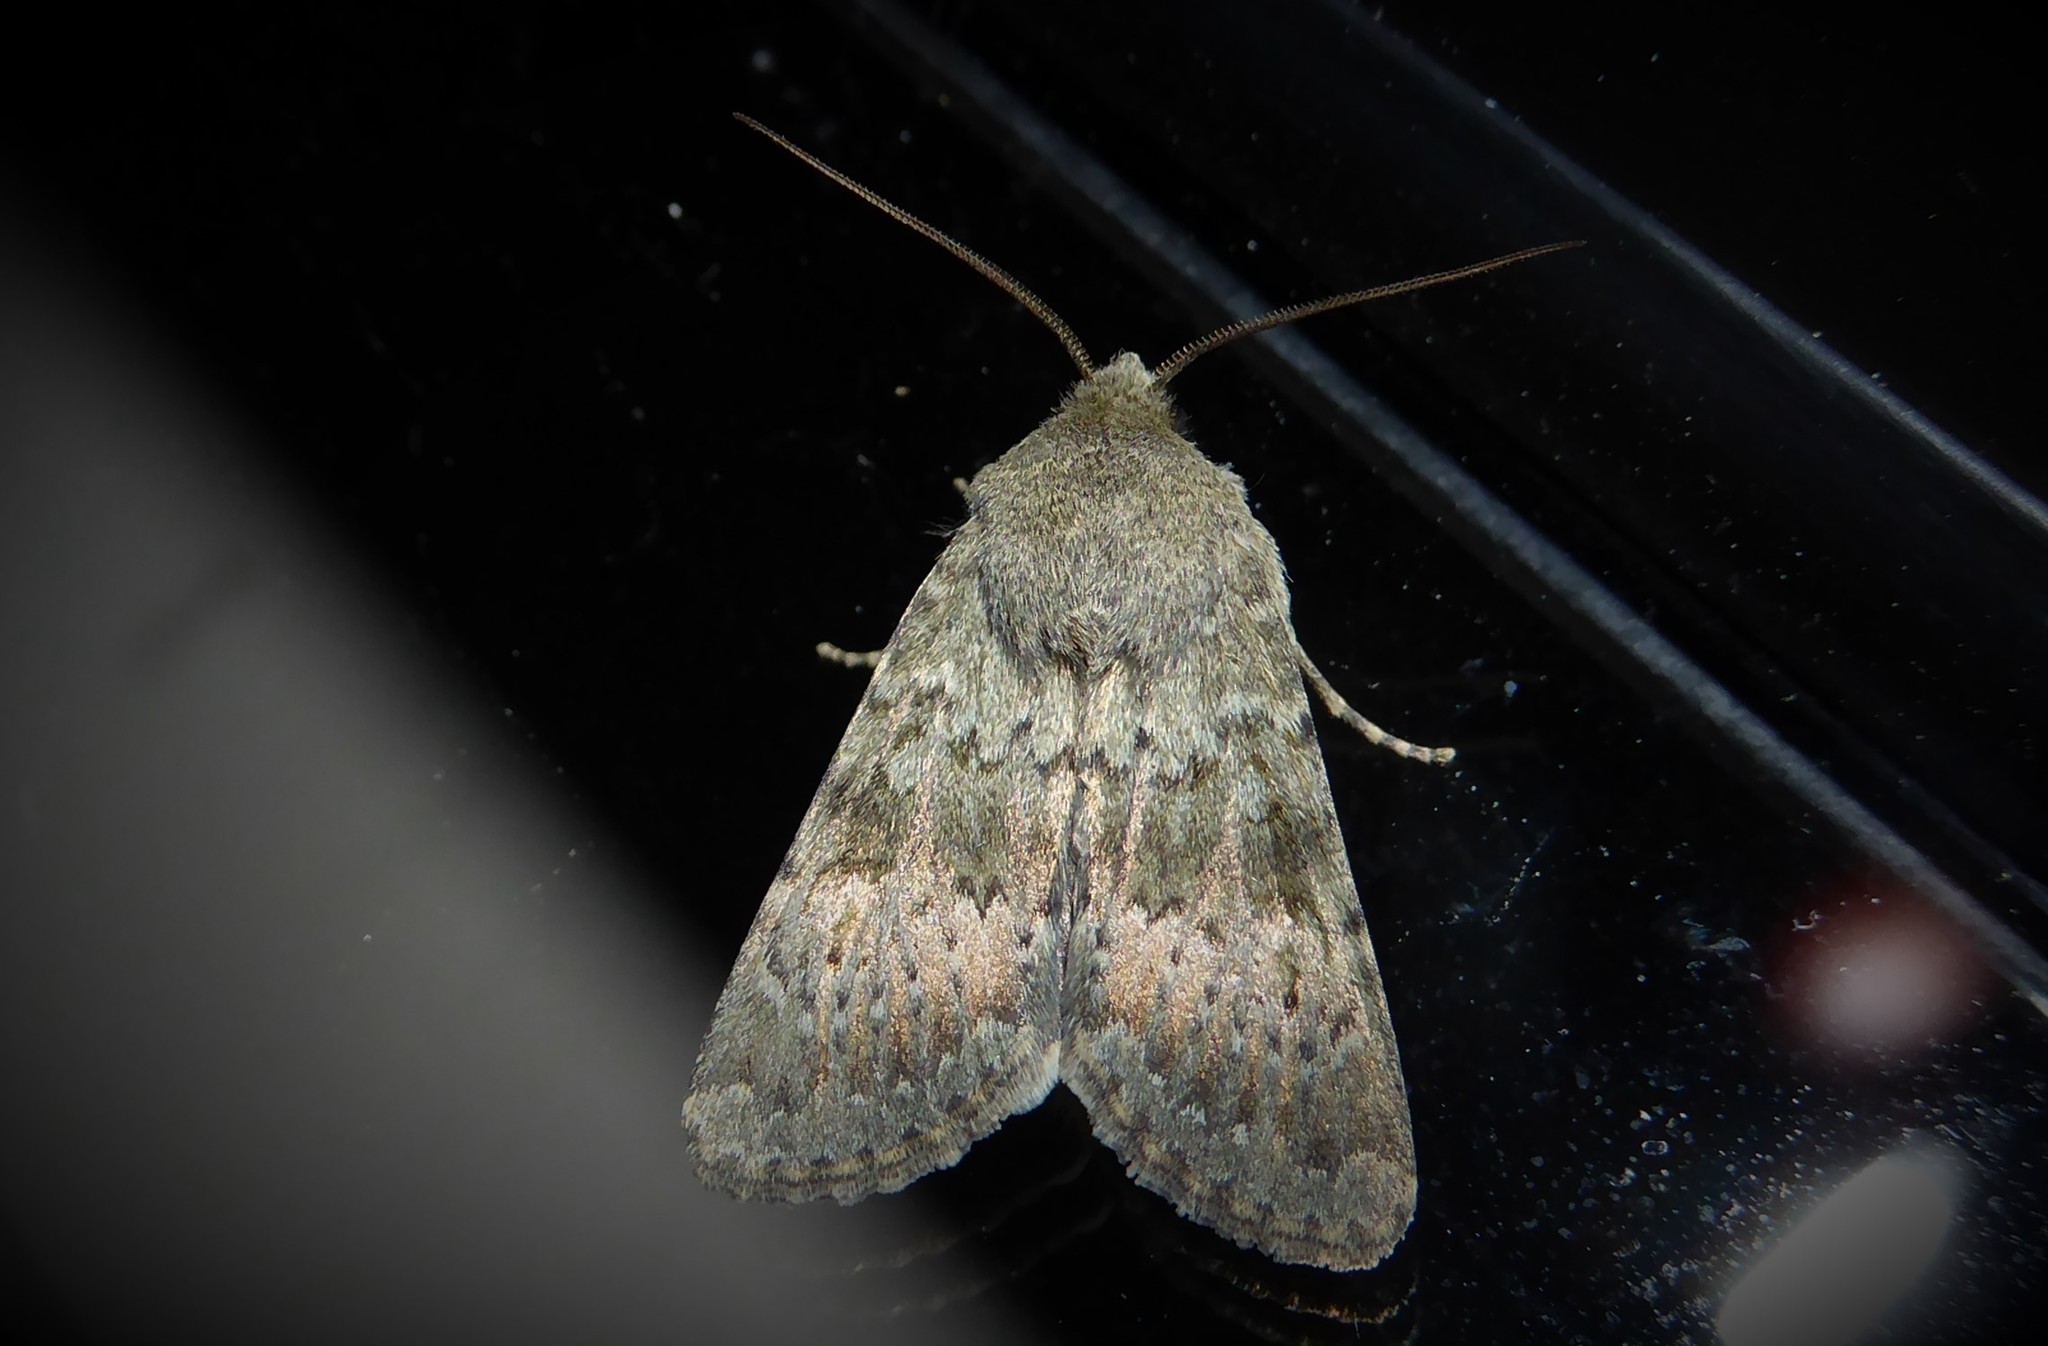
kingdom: Animalia
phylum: Arthropoda
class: Insecta
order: Lepidoptera
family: Noctuidae
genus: Ichneutica
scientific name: Ichneutica moderata
